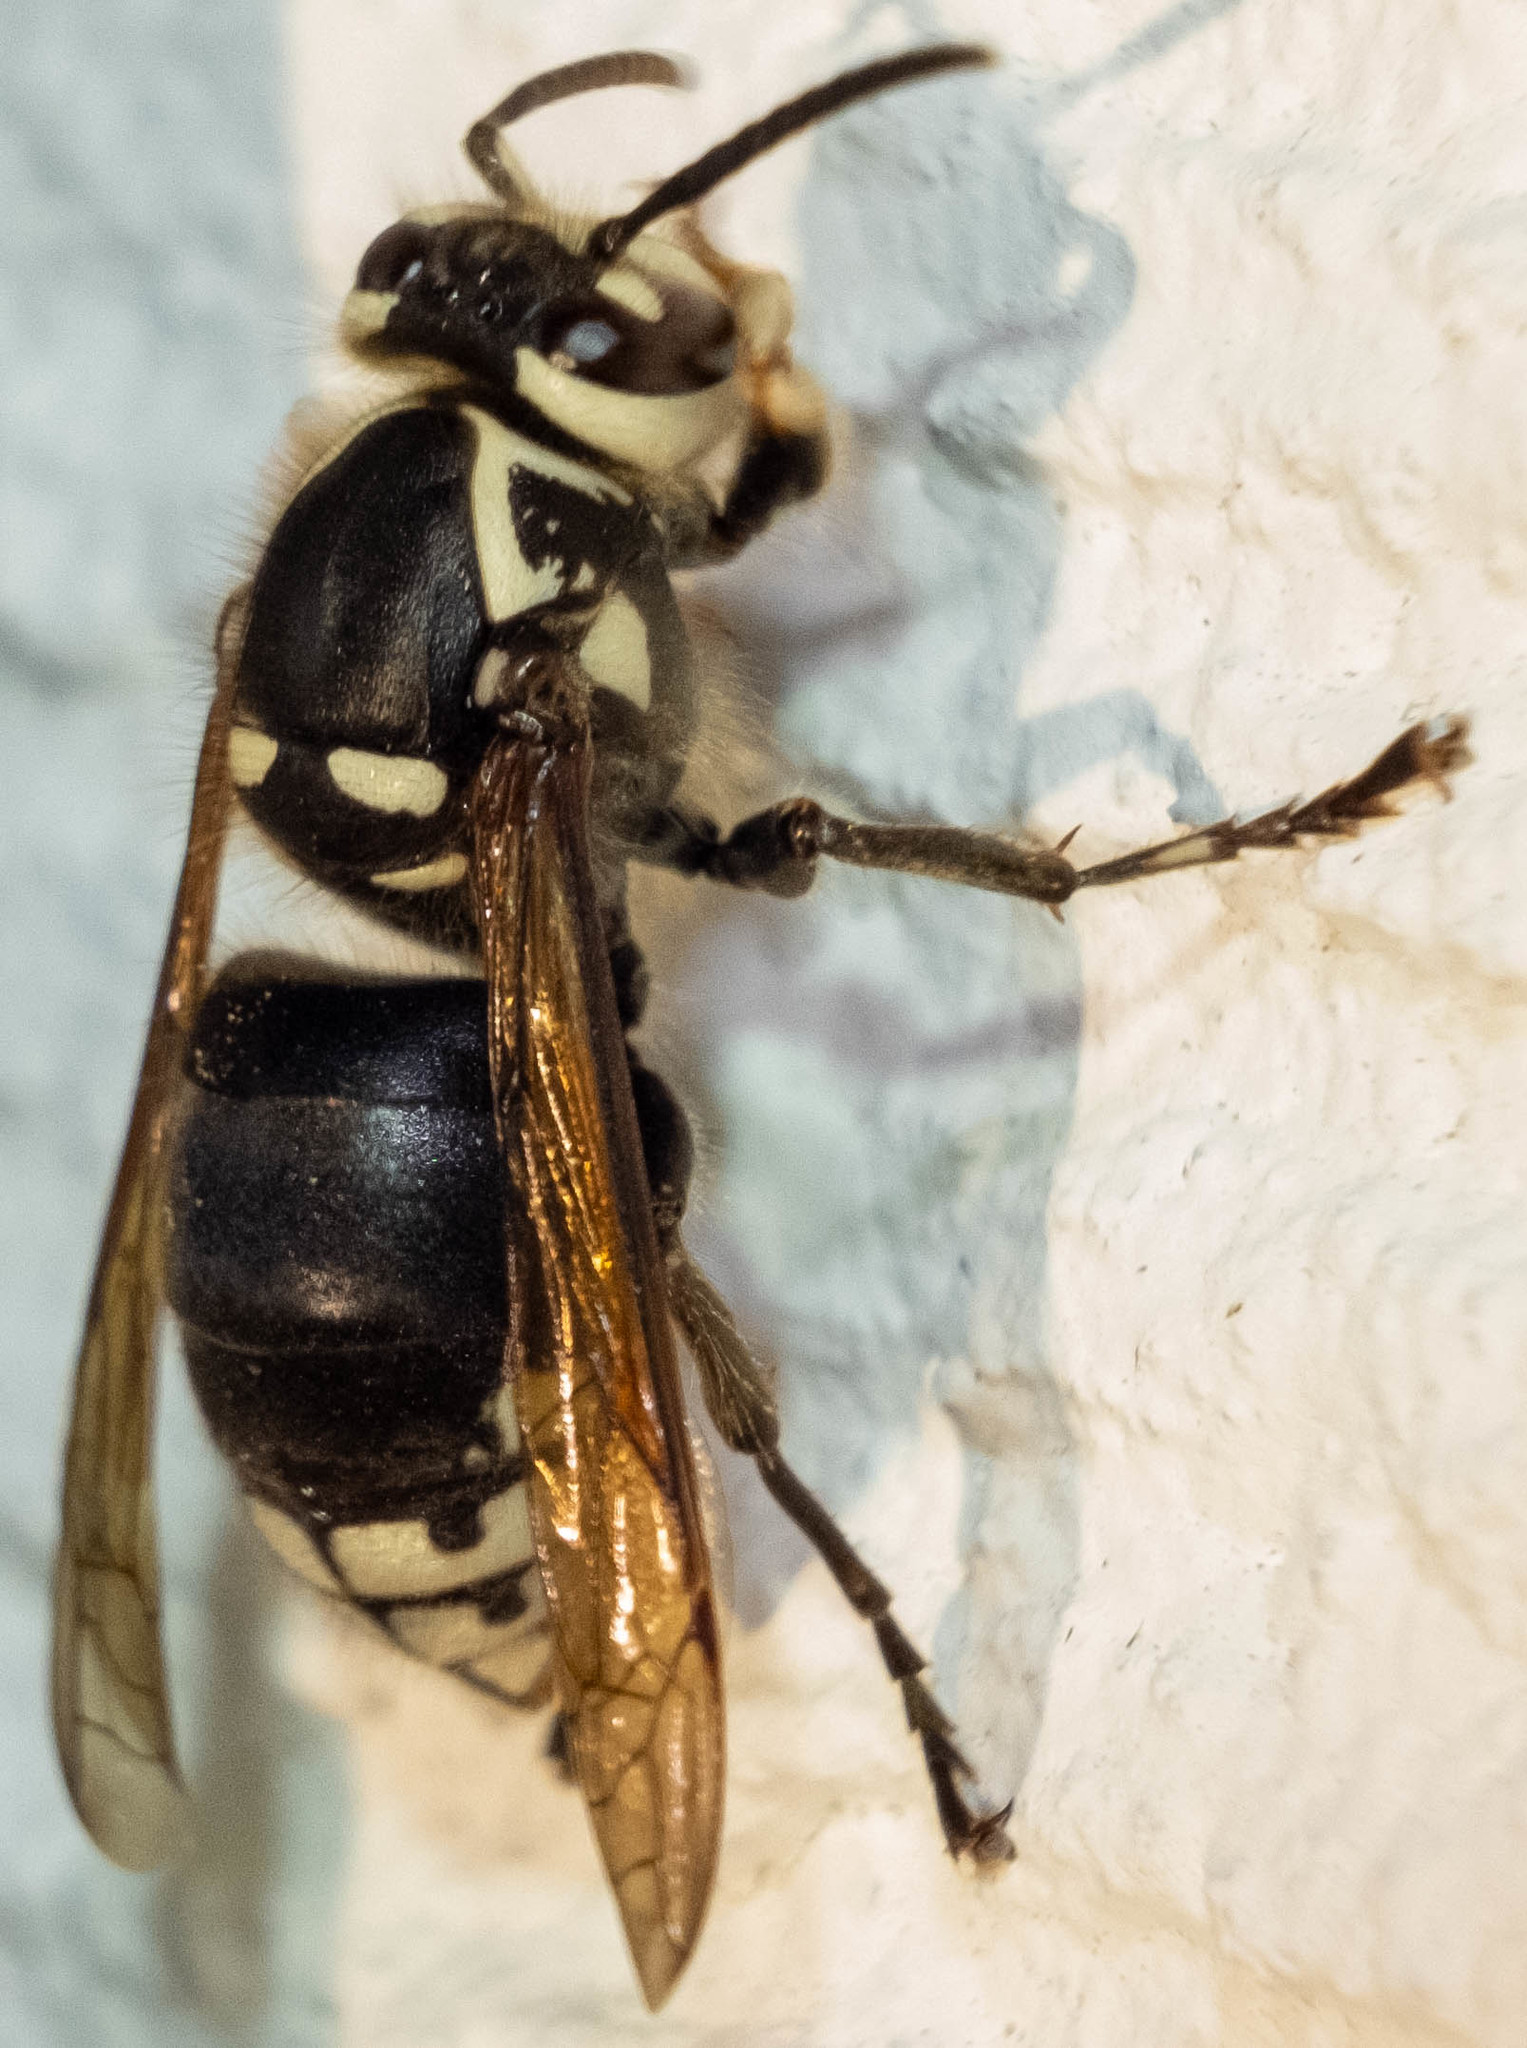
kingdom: Animalia
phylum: Arthropoda
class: Insecta
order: Hymenoptera
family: Vespidae
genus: Dolichovespula
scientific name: Dolichovespula maculata
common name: Bald-faced hornet
